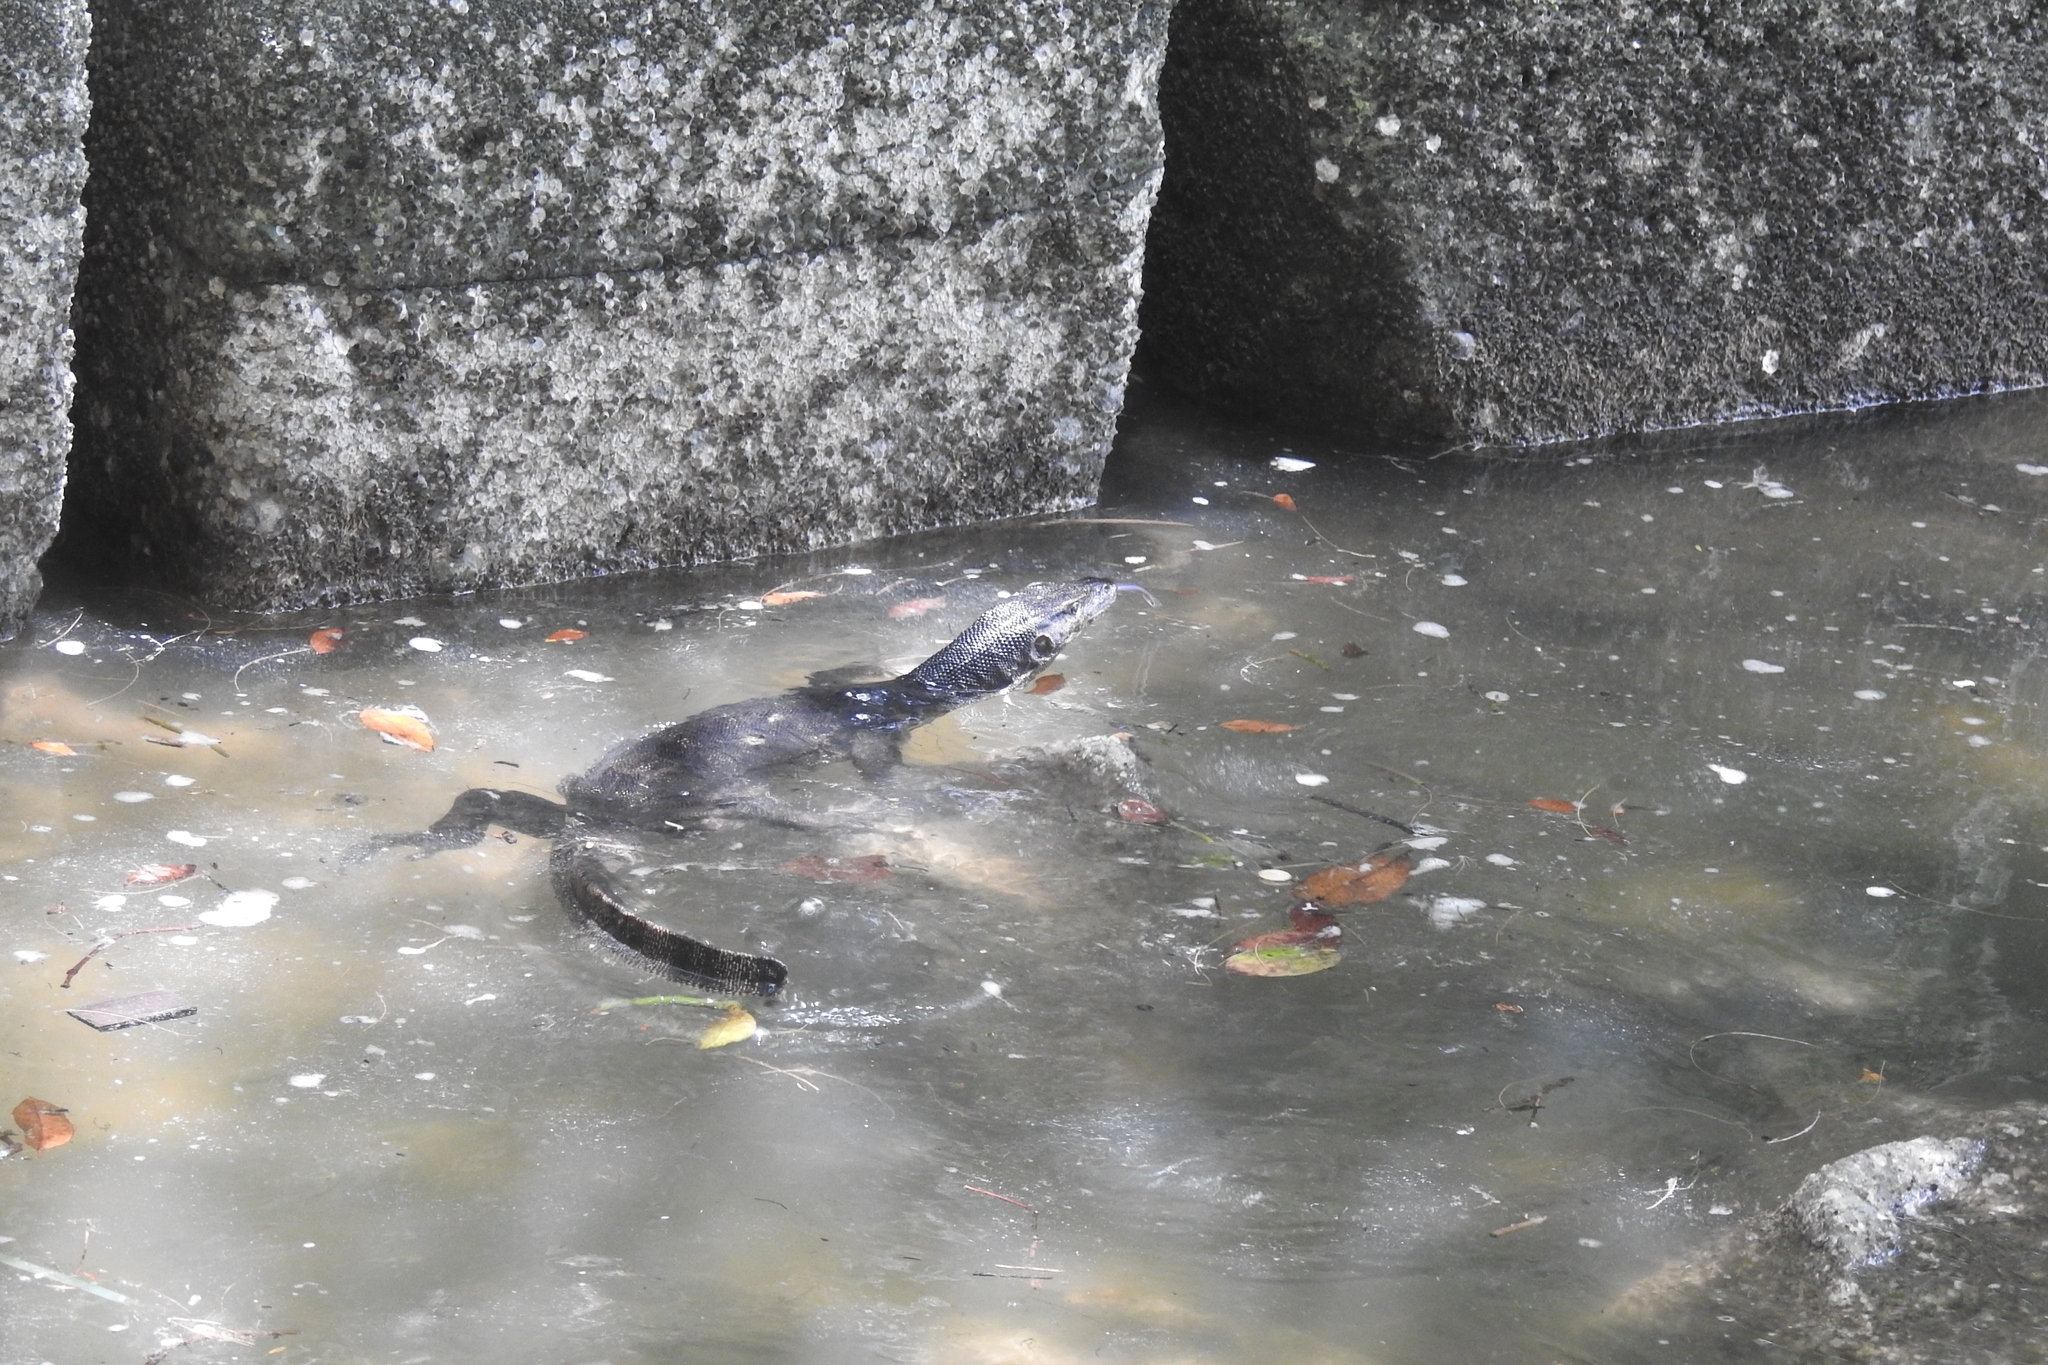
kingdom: Animalia
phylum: Chordata
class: Squamata
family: Varanidae
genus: Varanus
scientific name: Varanus salvator
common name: Common water monitor
